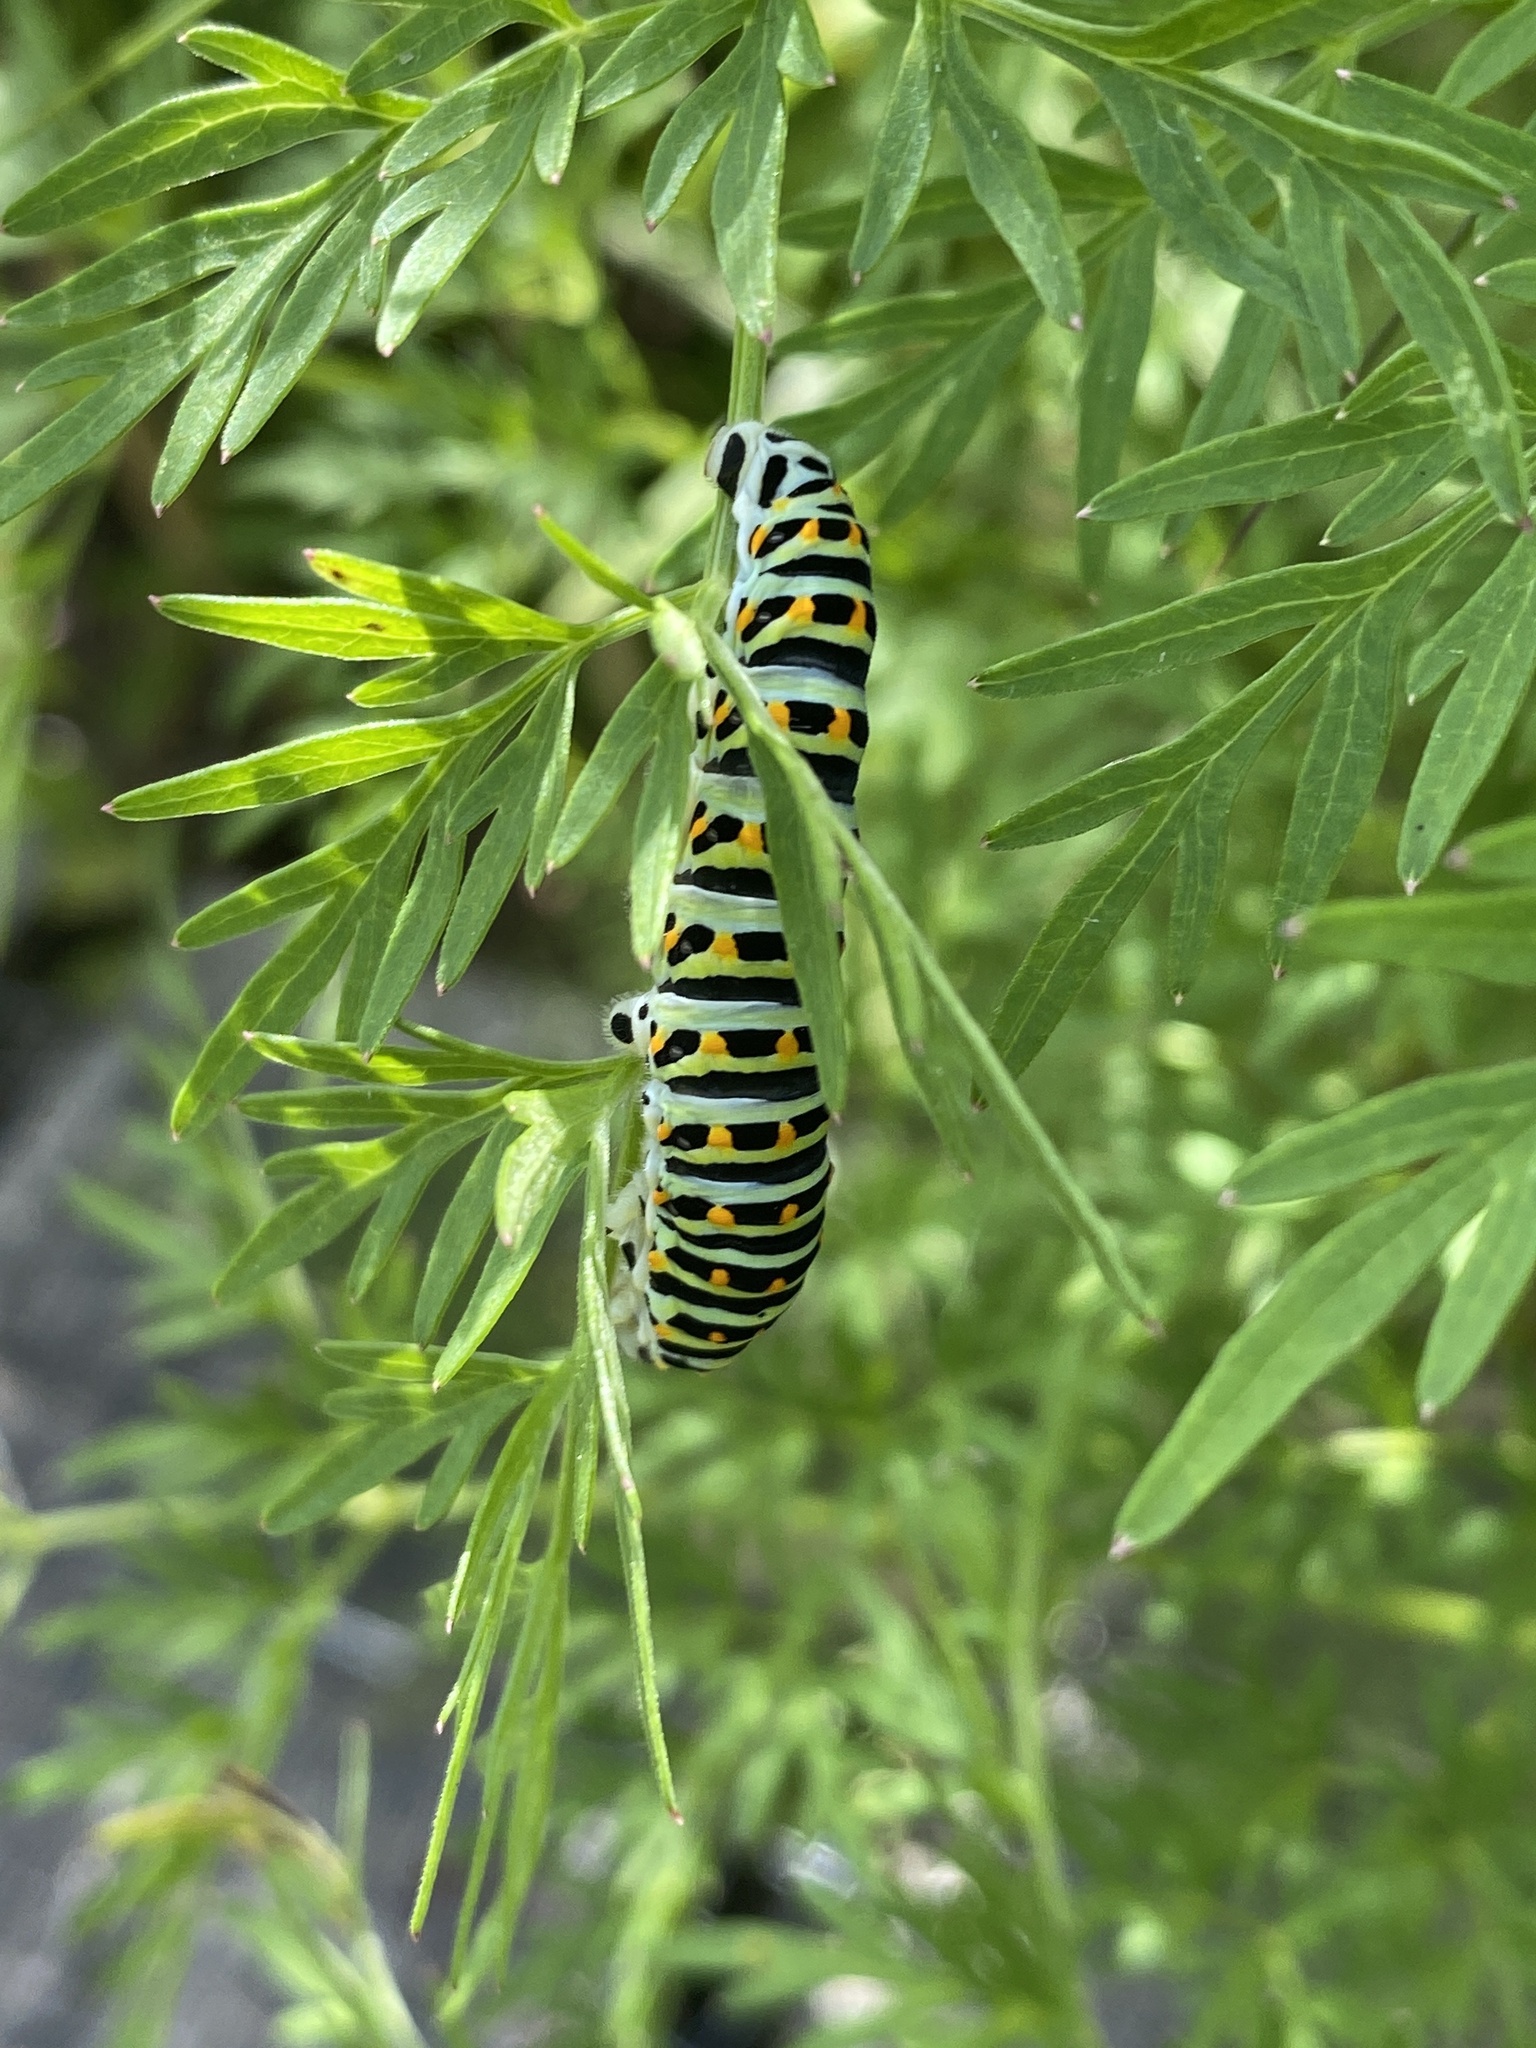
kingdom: Animalia
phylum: Arthropoda
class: Insecta
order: Lepidoptera
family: Papilionidae
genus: Papilio
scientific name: Papilio machaon
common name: Swallowtail
